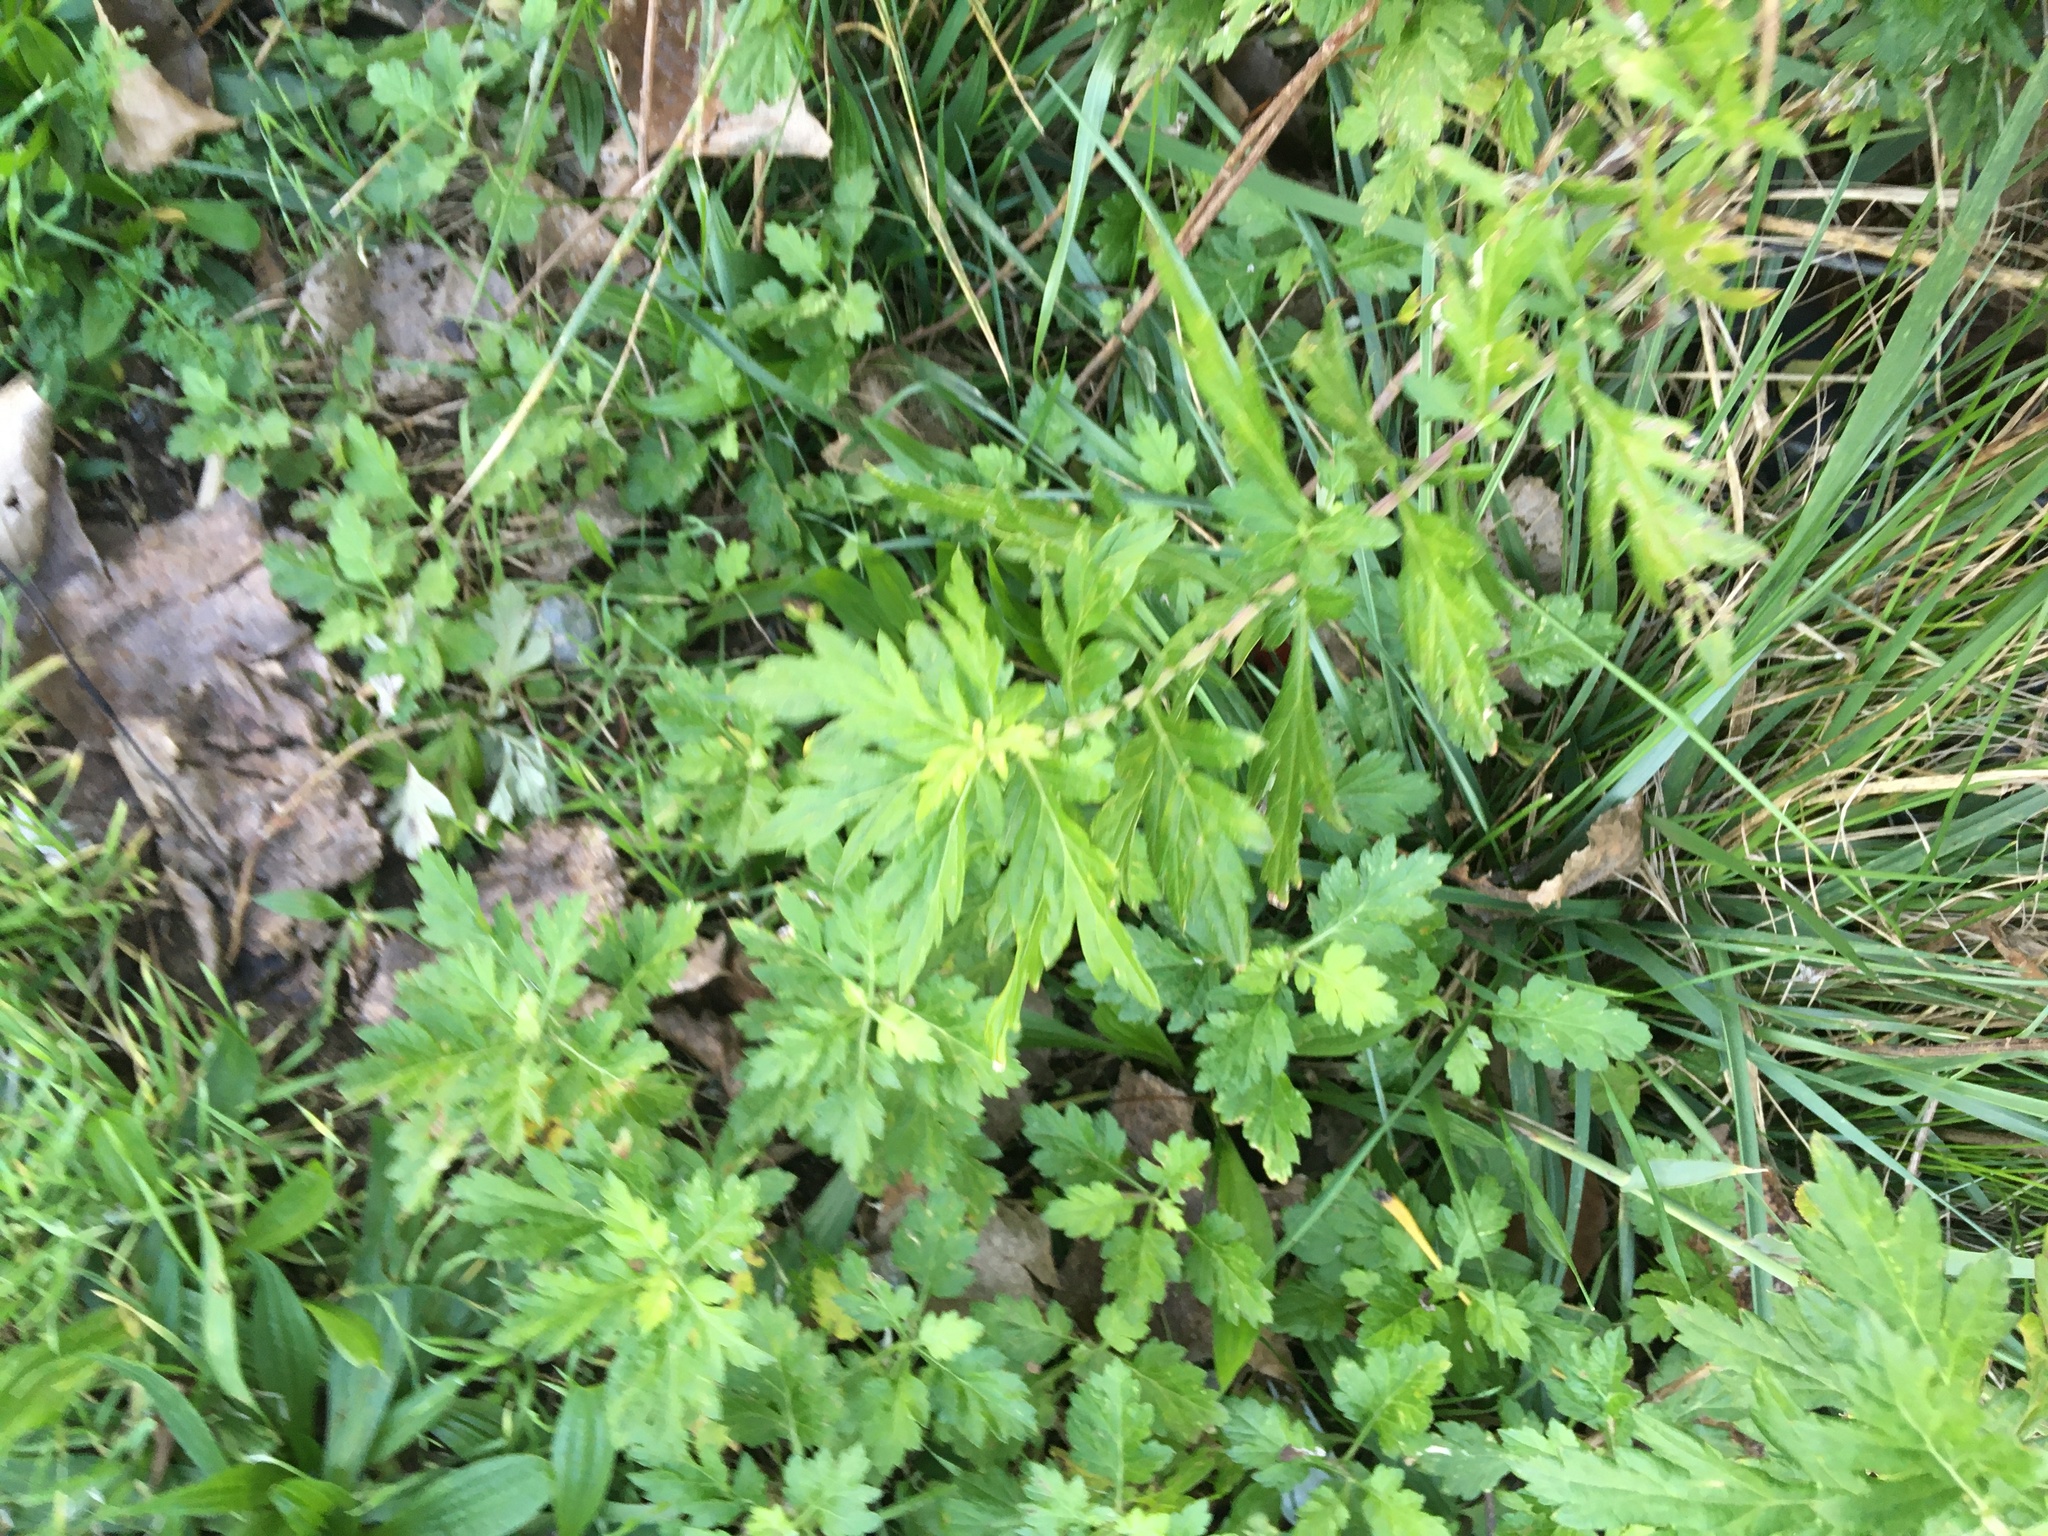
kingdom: Plantae
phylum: Tracheophyta
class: Magnoliopsida
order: Asterales
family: Asteraceae
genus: Artemisia
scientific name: Artemisia vulgaris
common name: Mugwort
